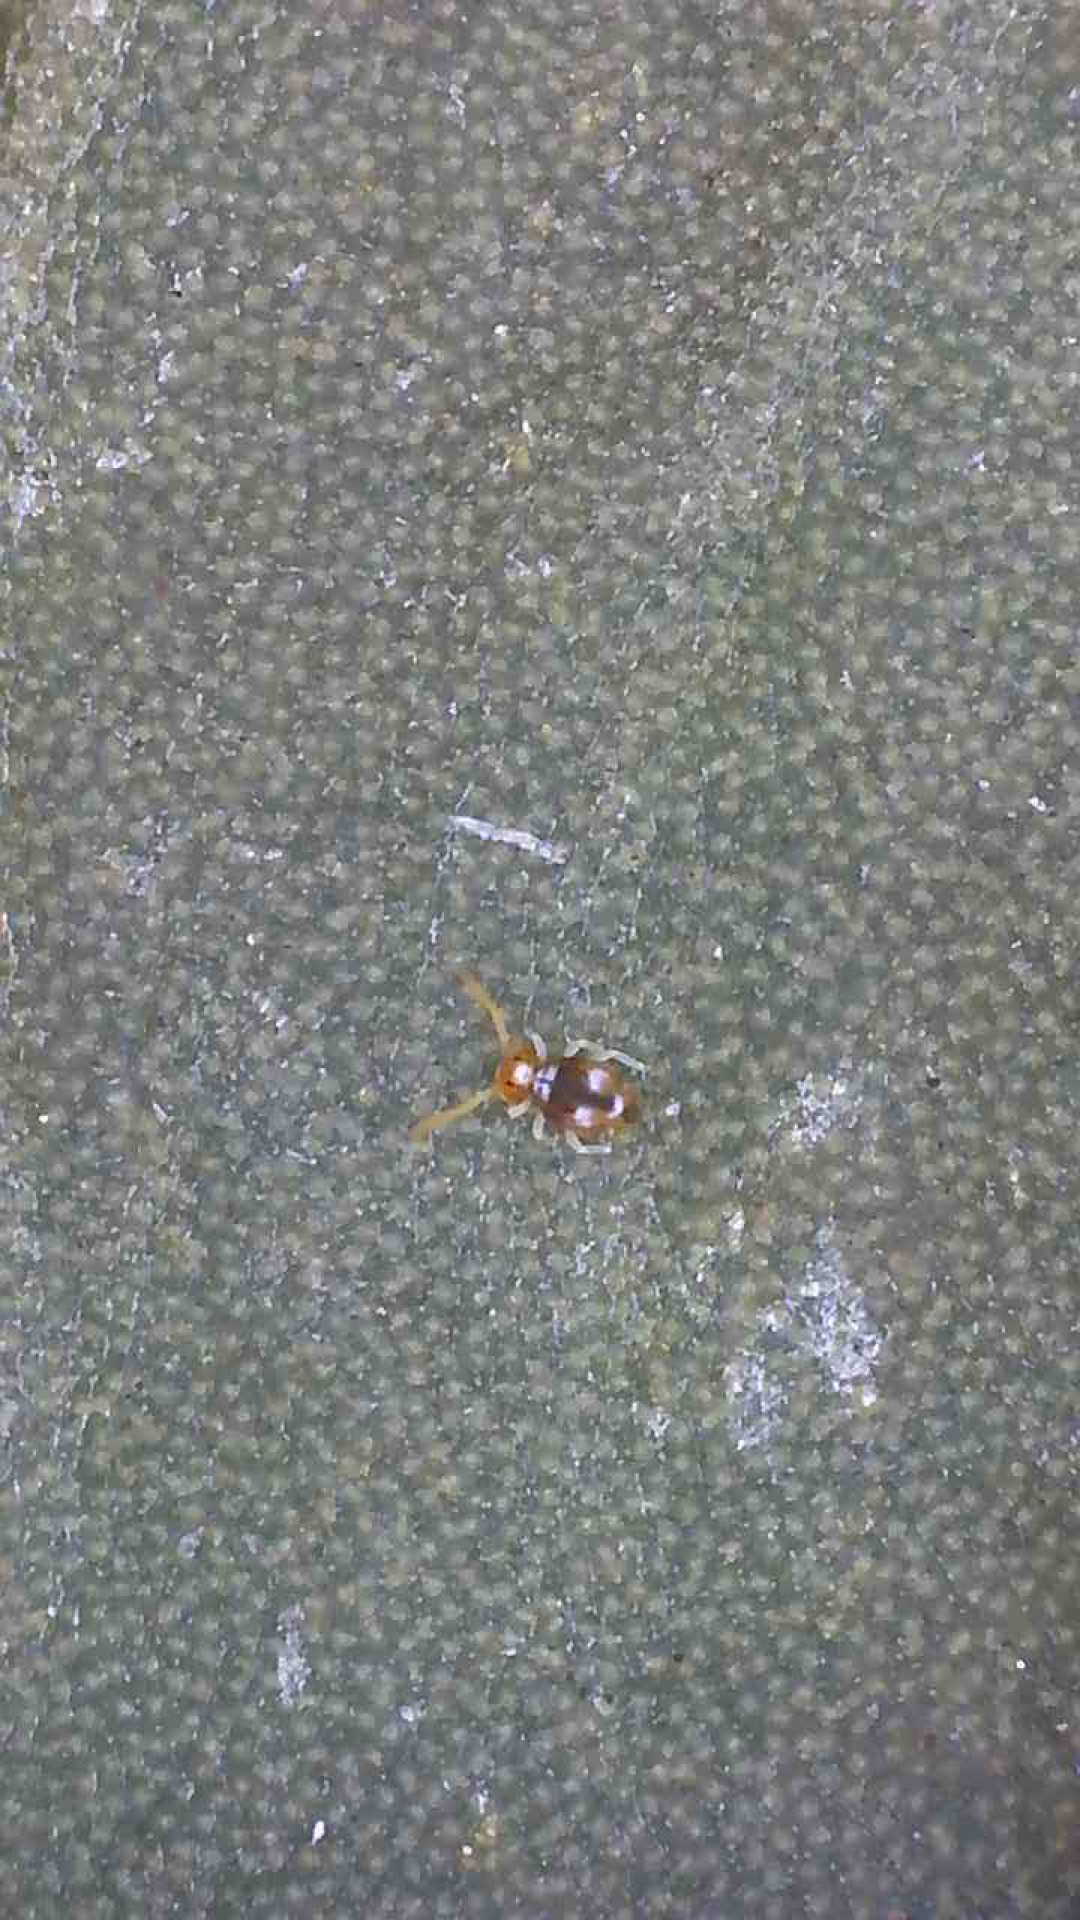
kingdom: Animalia
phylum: Arthropoda
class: Collembola
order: Symphypleona
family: Katiannidae
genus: Katiannina
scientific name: Katiannina macgillivrayi
